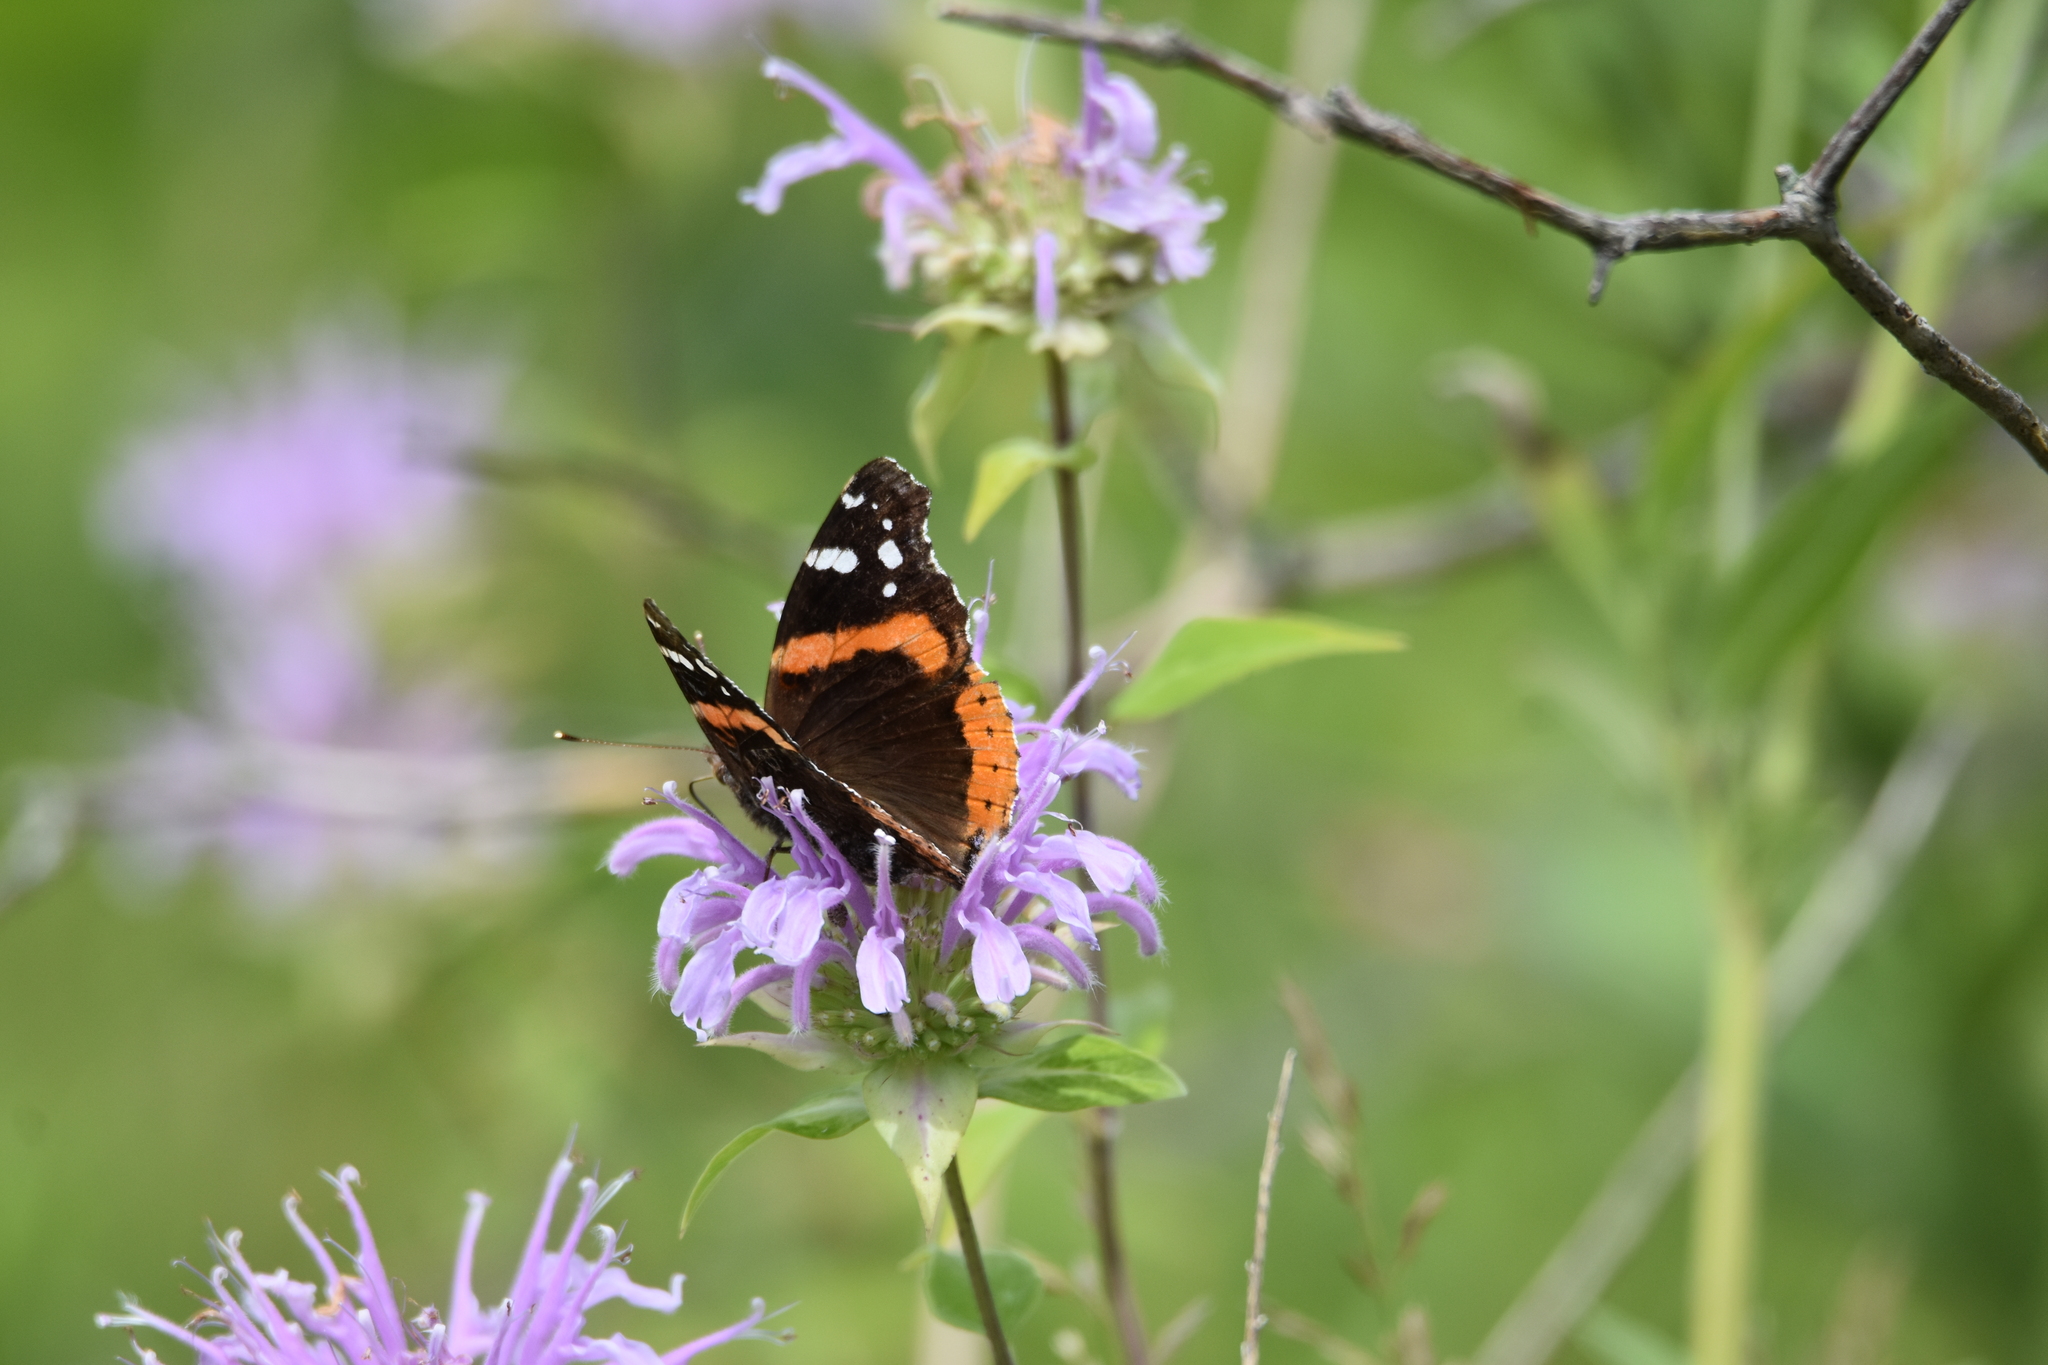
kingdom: Animalia
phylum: Arthropoda
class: Insecta
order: Lepidoptera
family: Nymphalidae
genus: Vanessa
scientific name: Vanessa atalanta
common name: Red admiral
